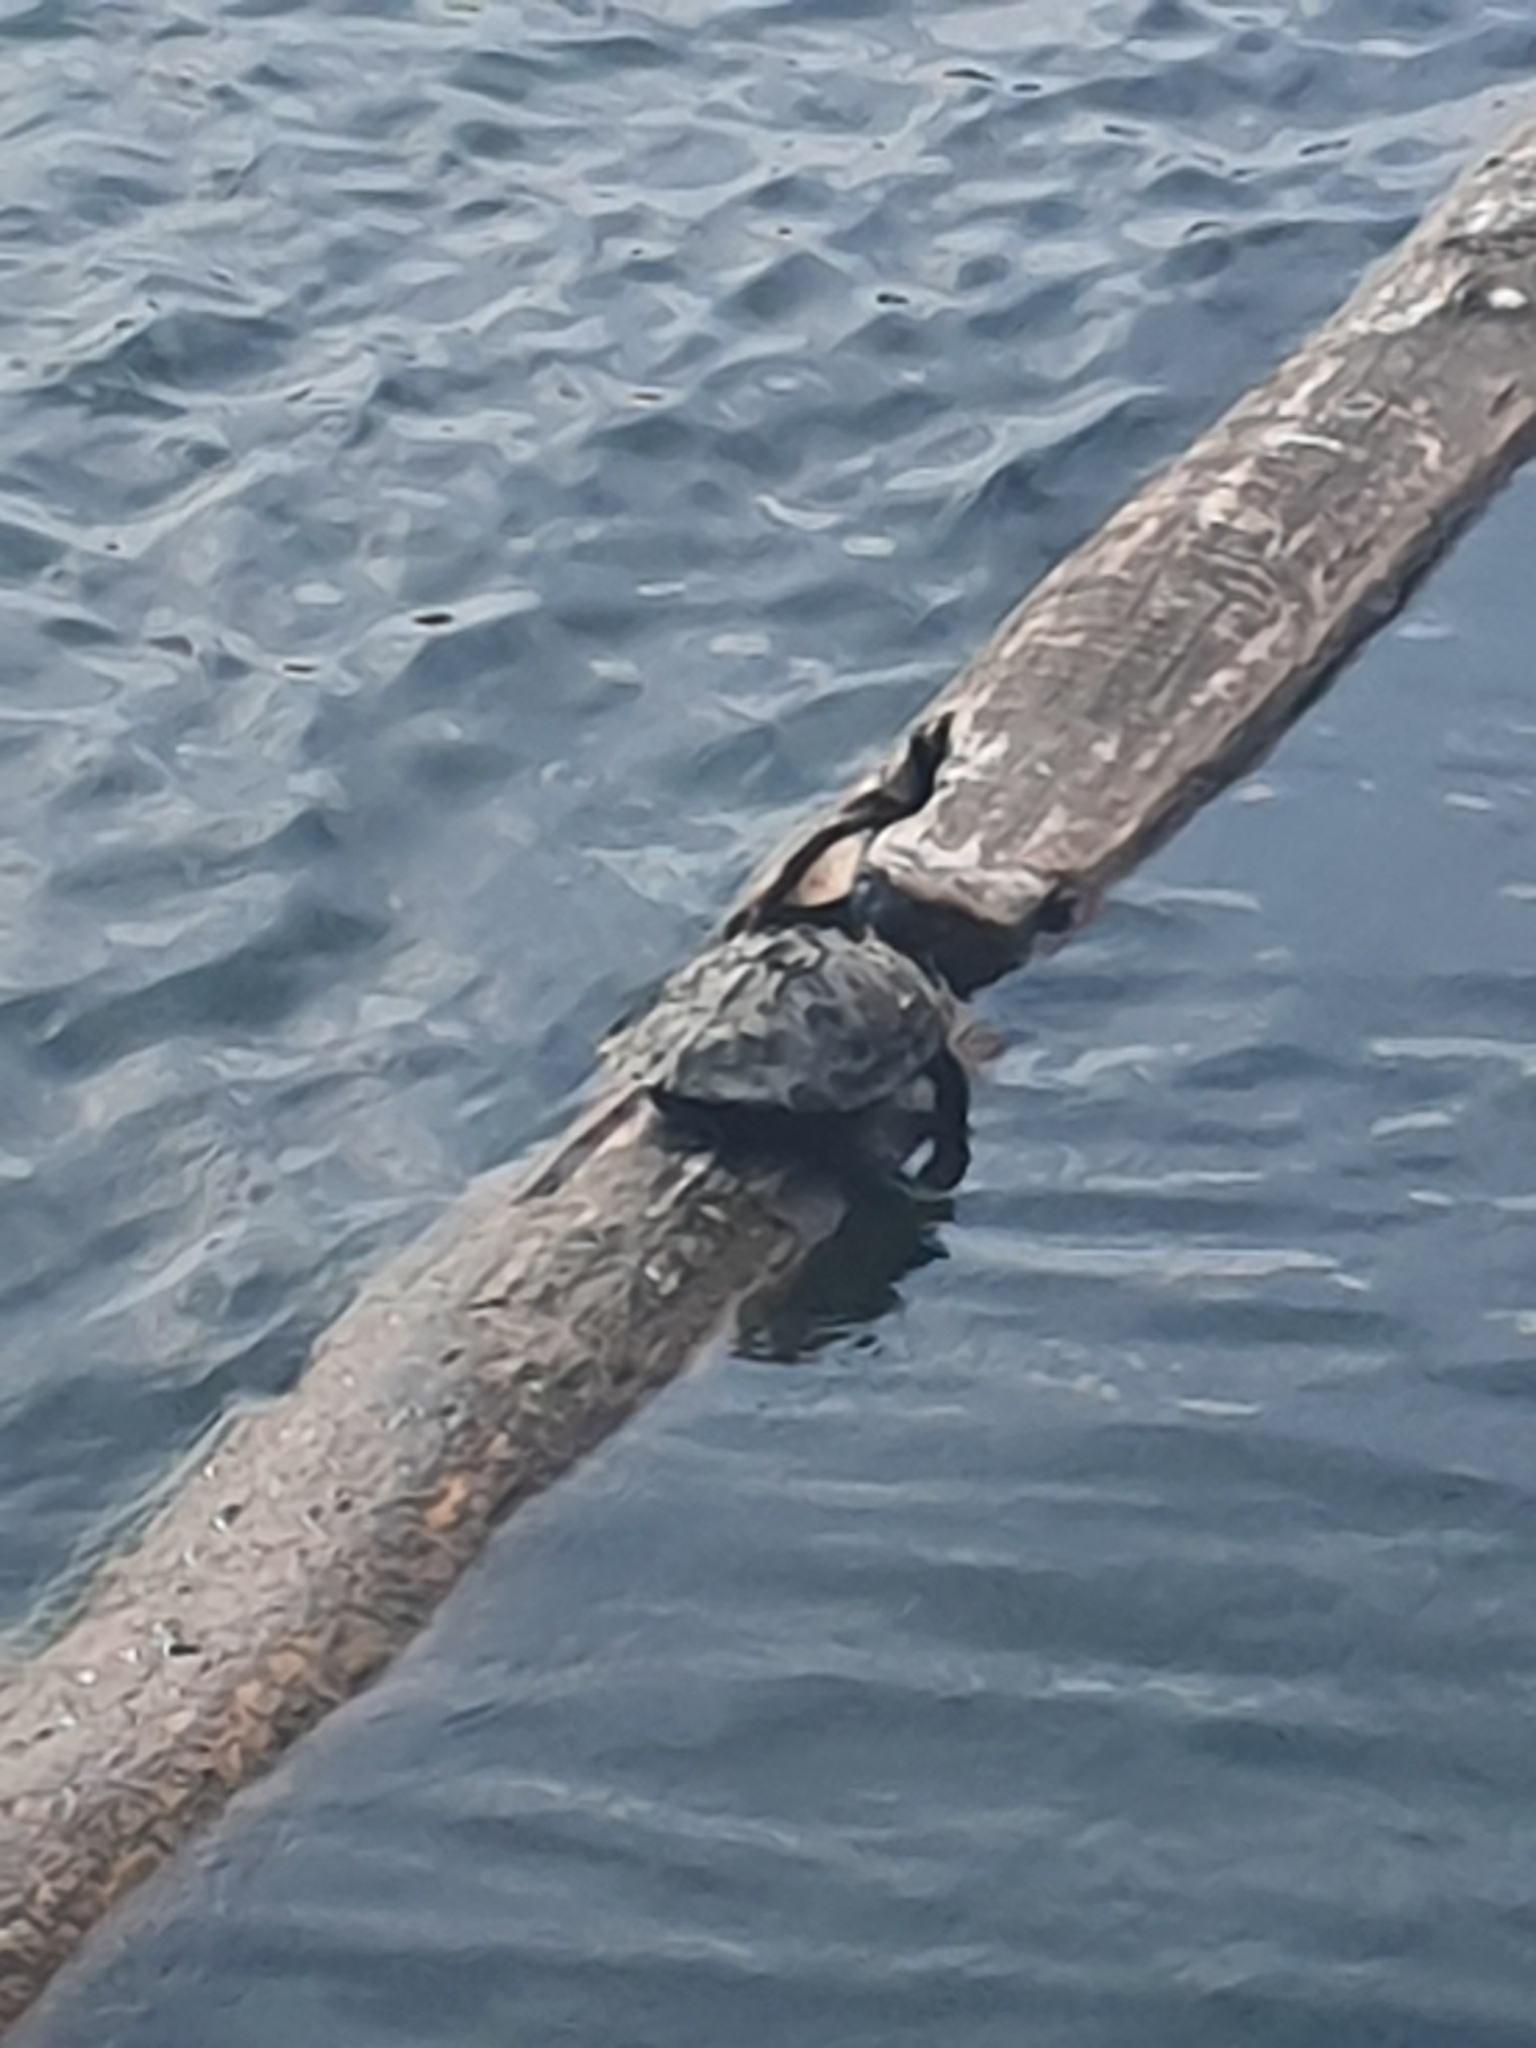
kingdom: Animalia
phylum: Chordata
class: Testudines
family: Emydidae
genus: Graptemys
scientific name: Graptemys pseudogeographica
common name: False map turtle
